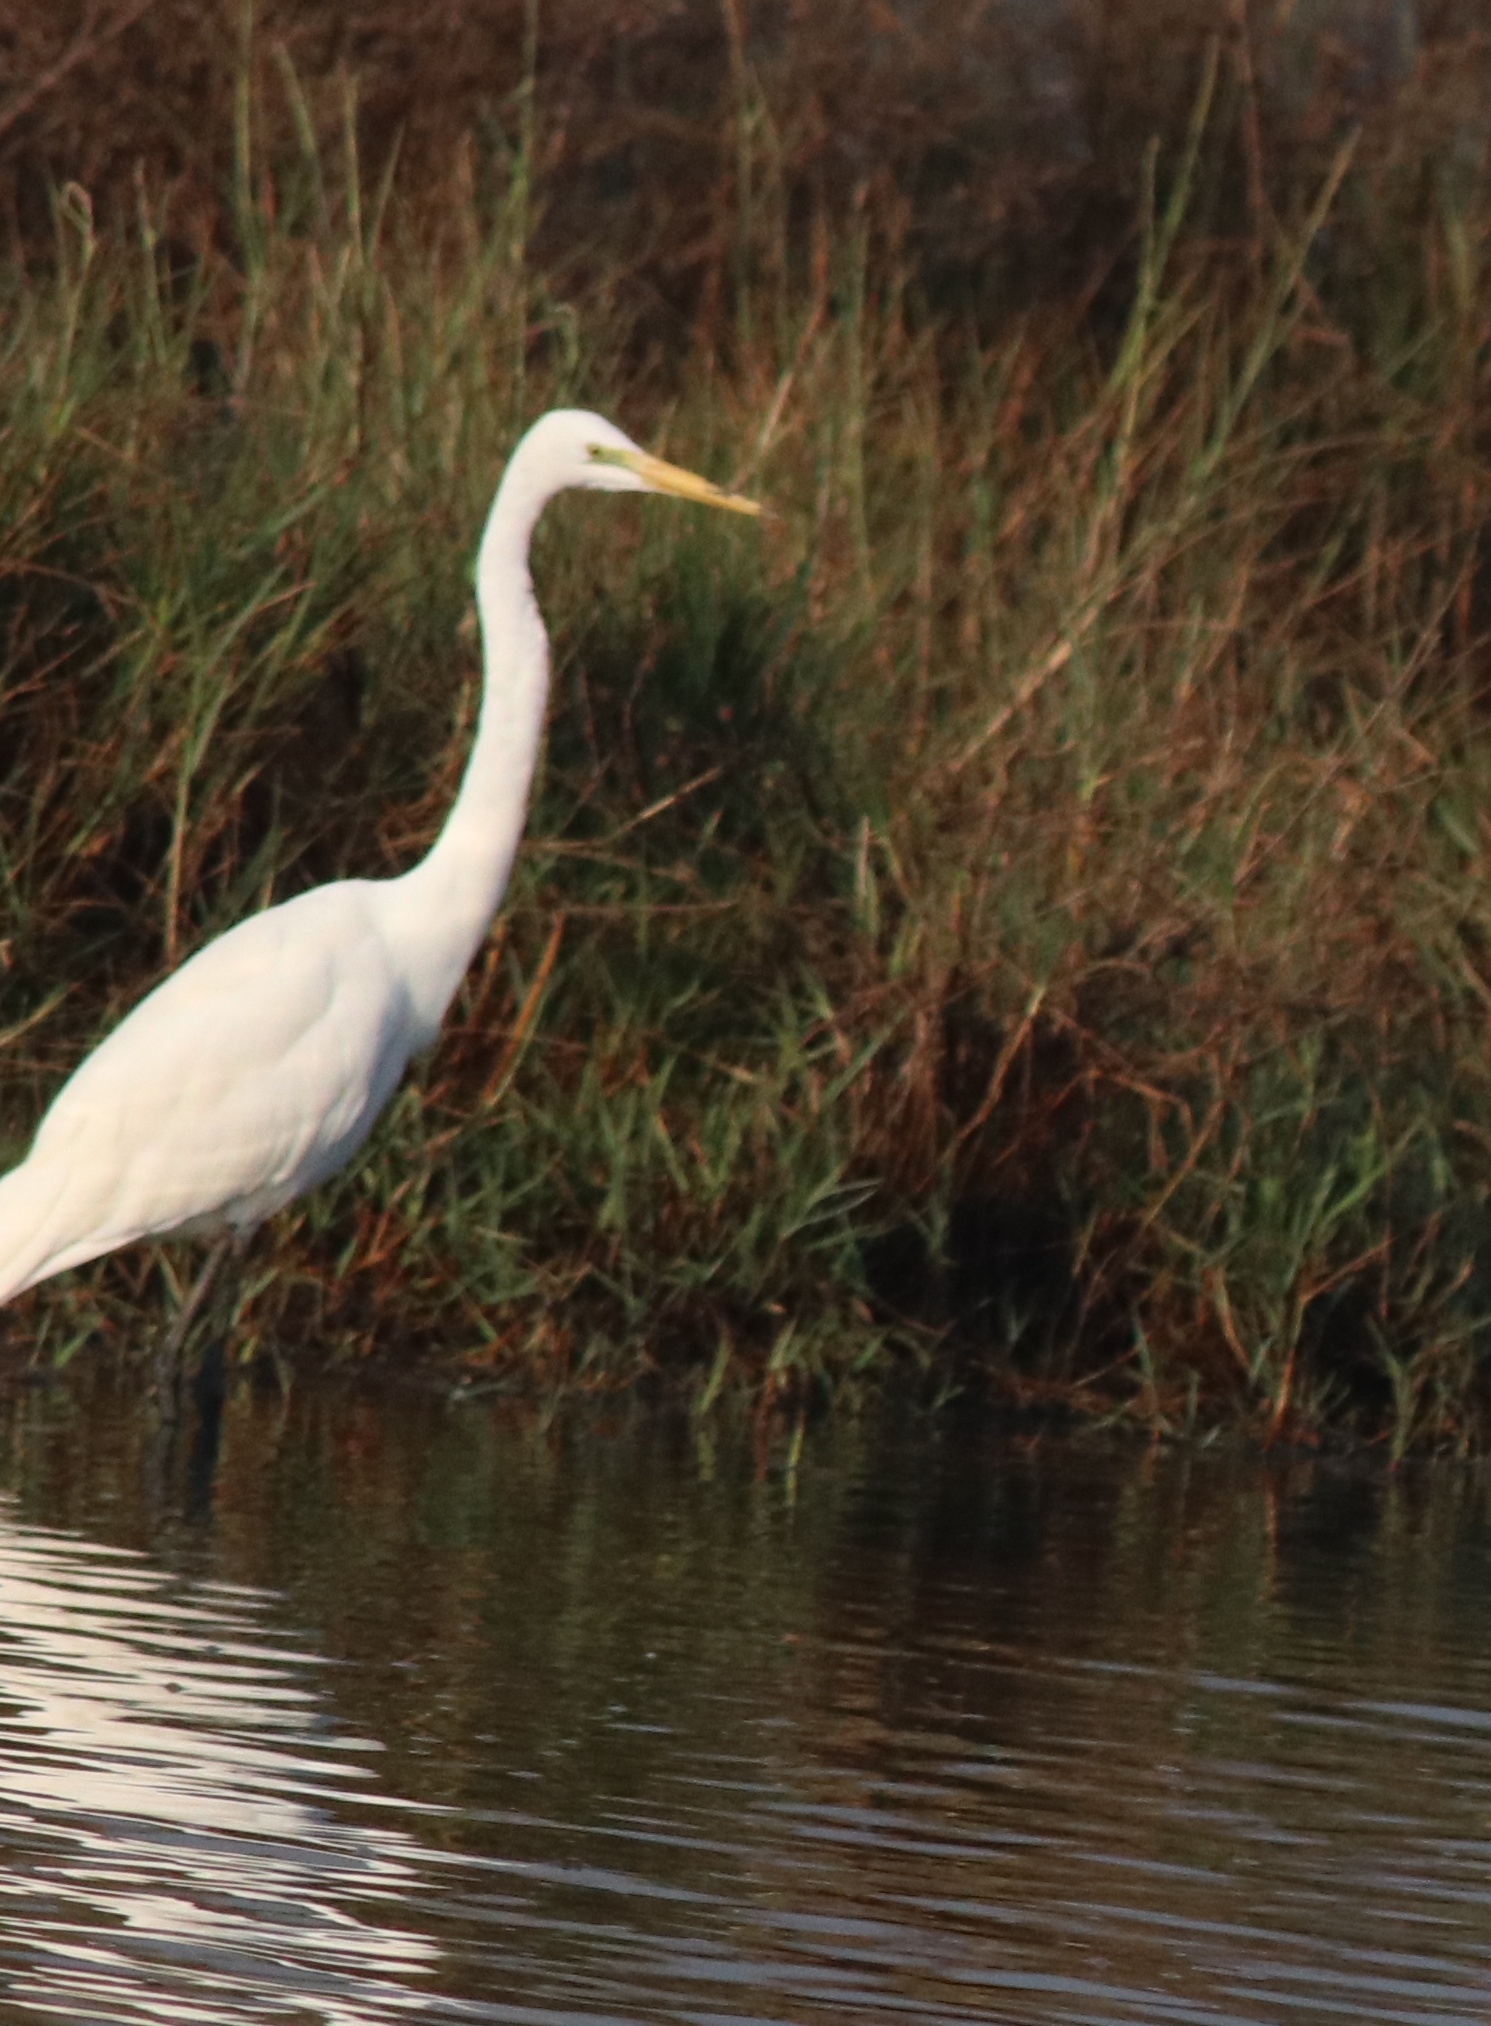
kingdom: Animalia
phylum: Chordata
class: Aves
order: Pelecaniformes
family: Ardeidae
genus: Ardea
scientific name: Ardea alba
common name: Great egret
